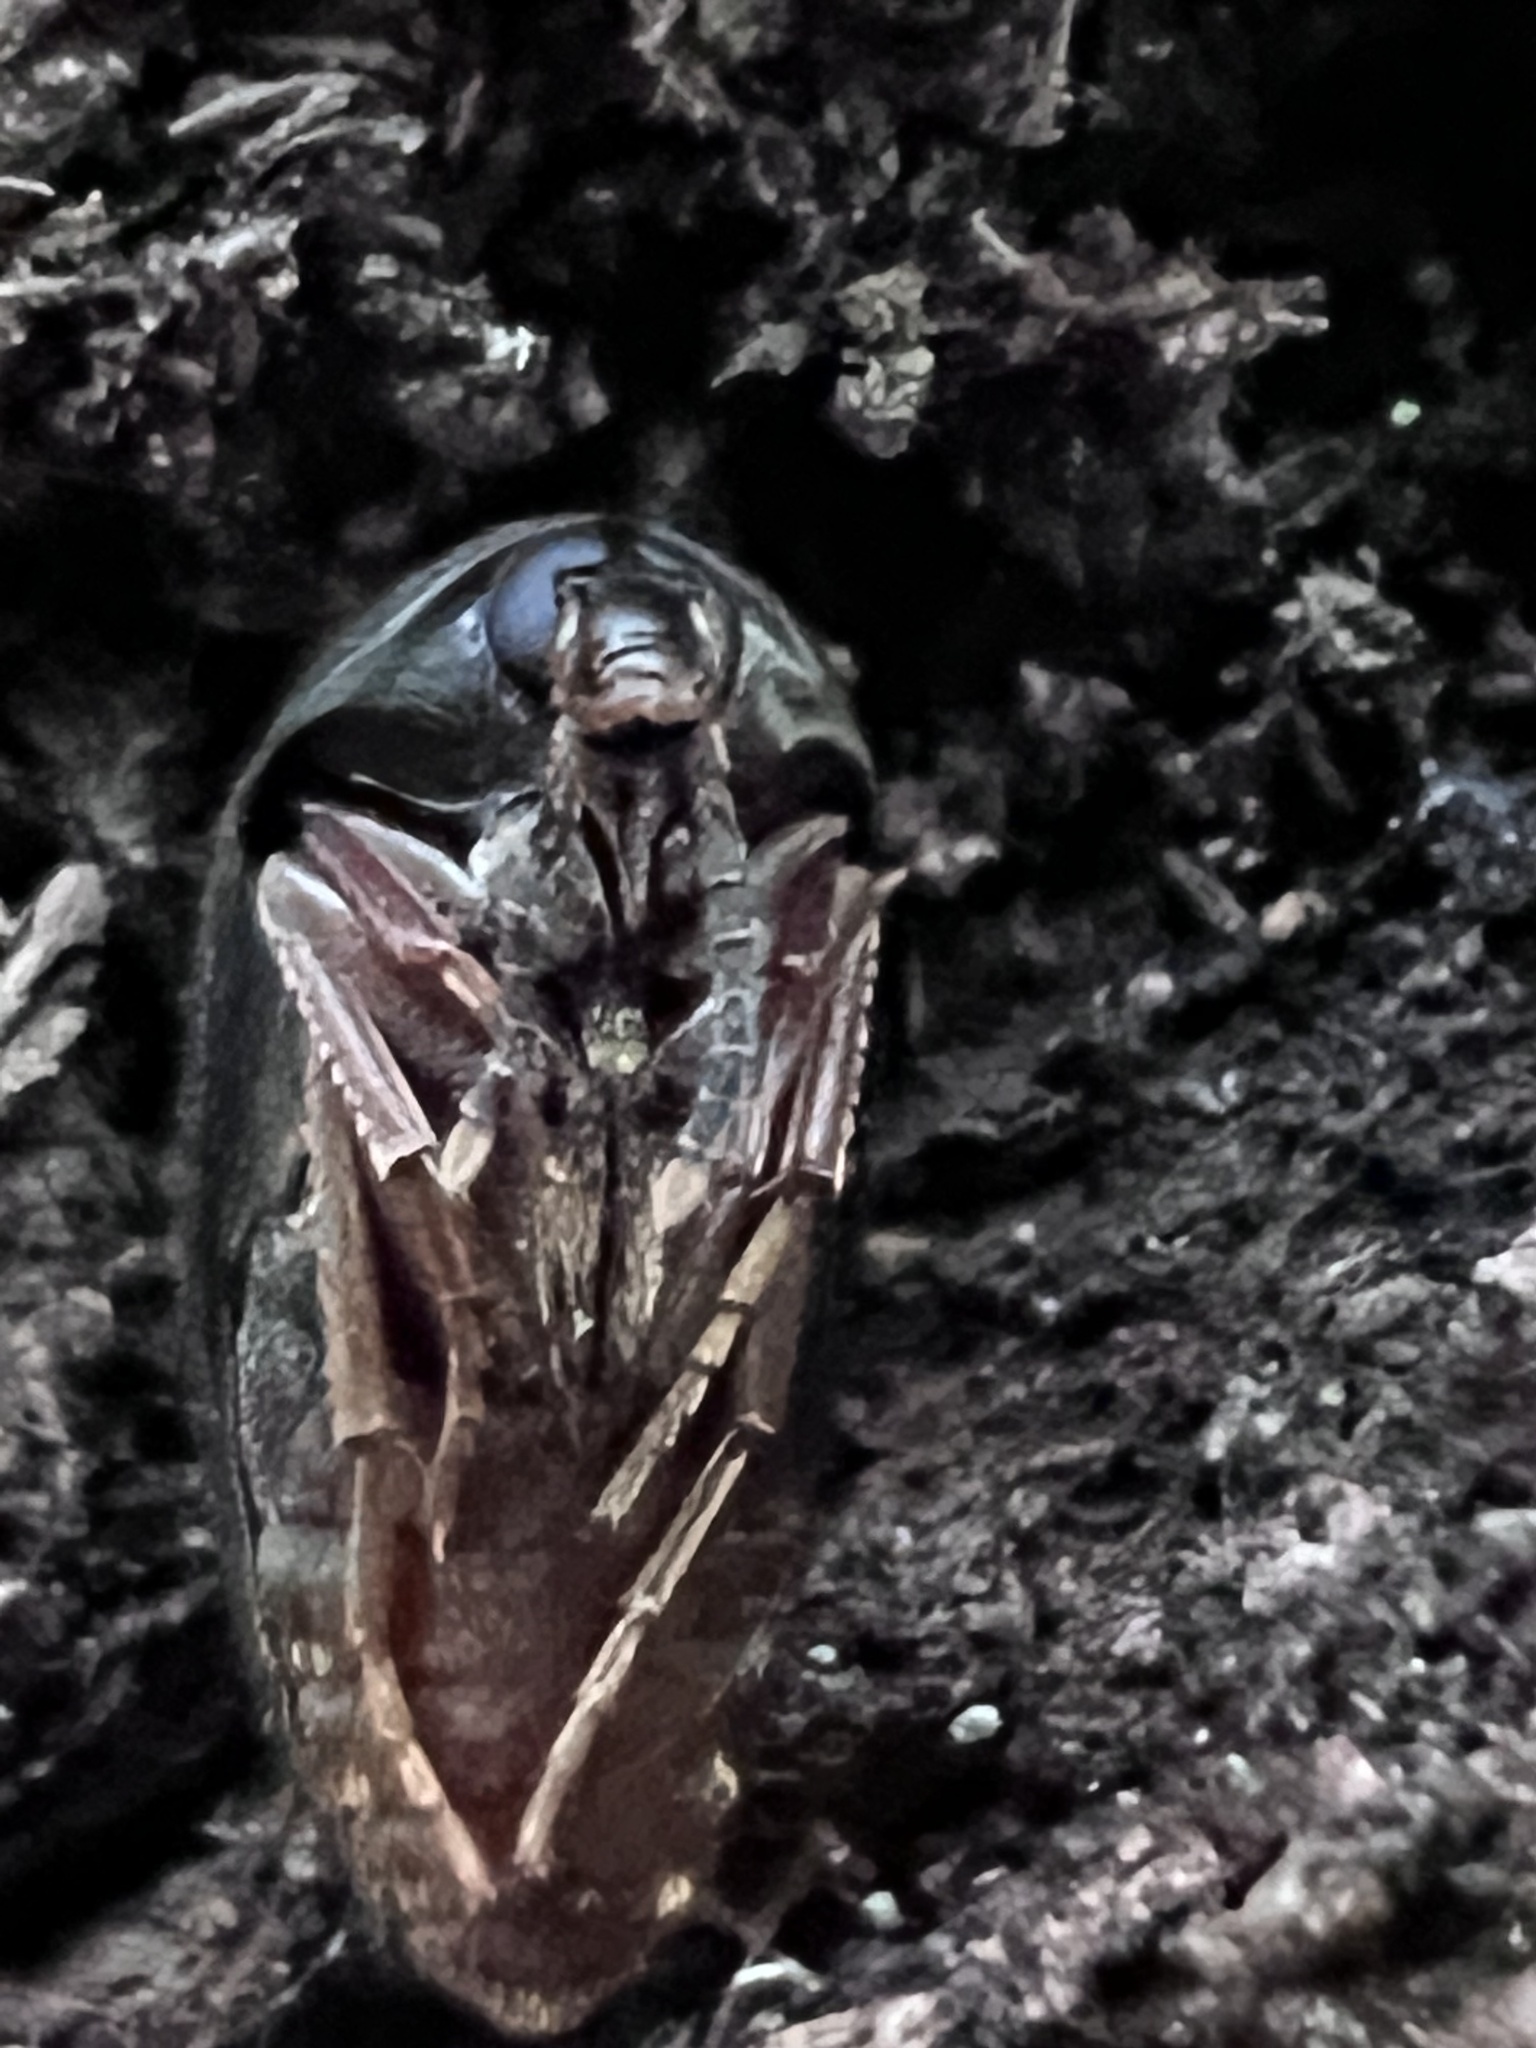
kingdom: Animalia
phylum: Arthropoda
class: Insecta
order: Coleoptera
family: Tetratomidae
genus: Eustrophopsis
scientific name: Eustrophopsis bicolor
